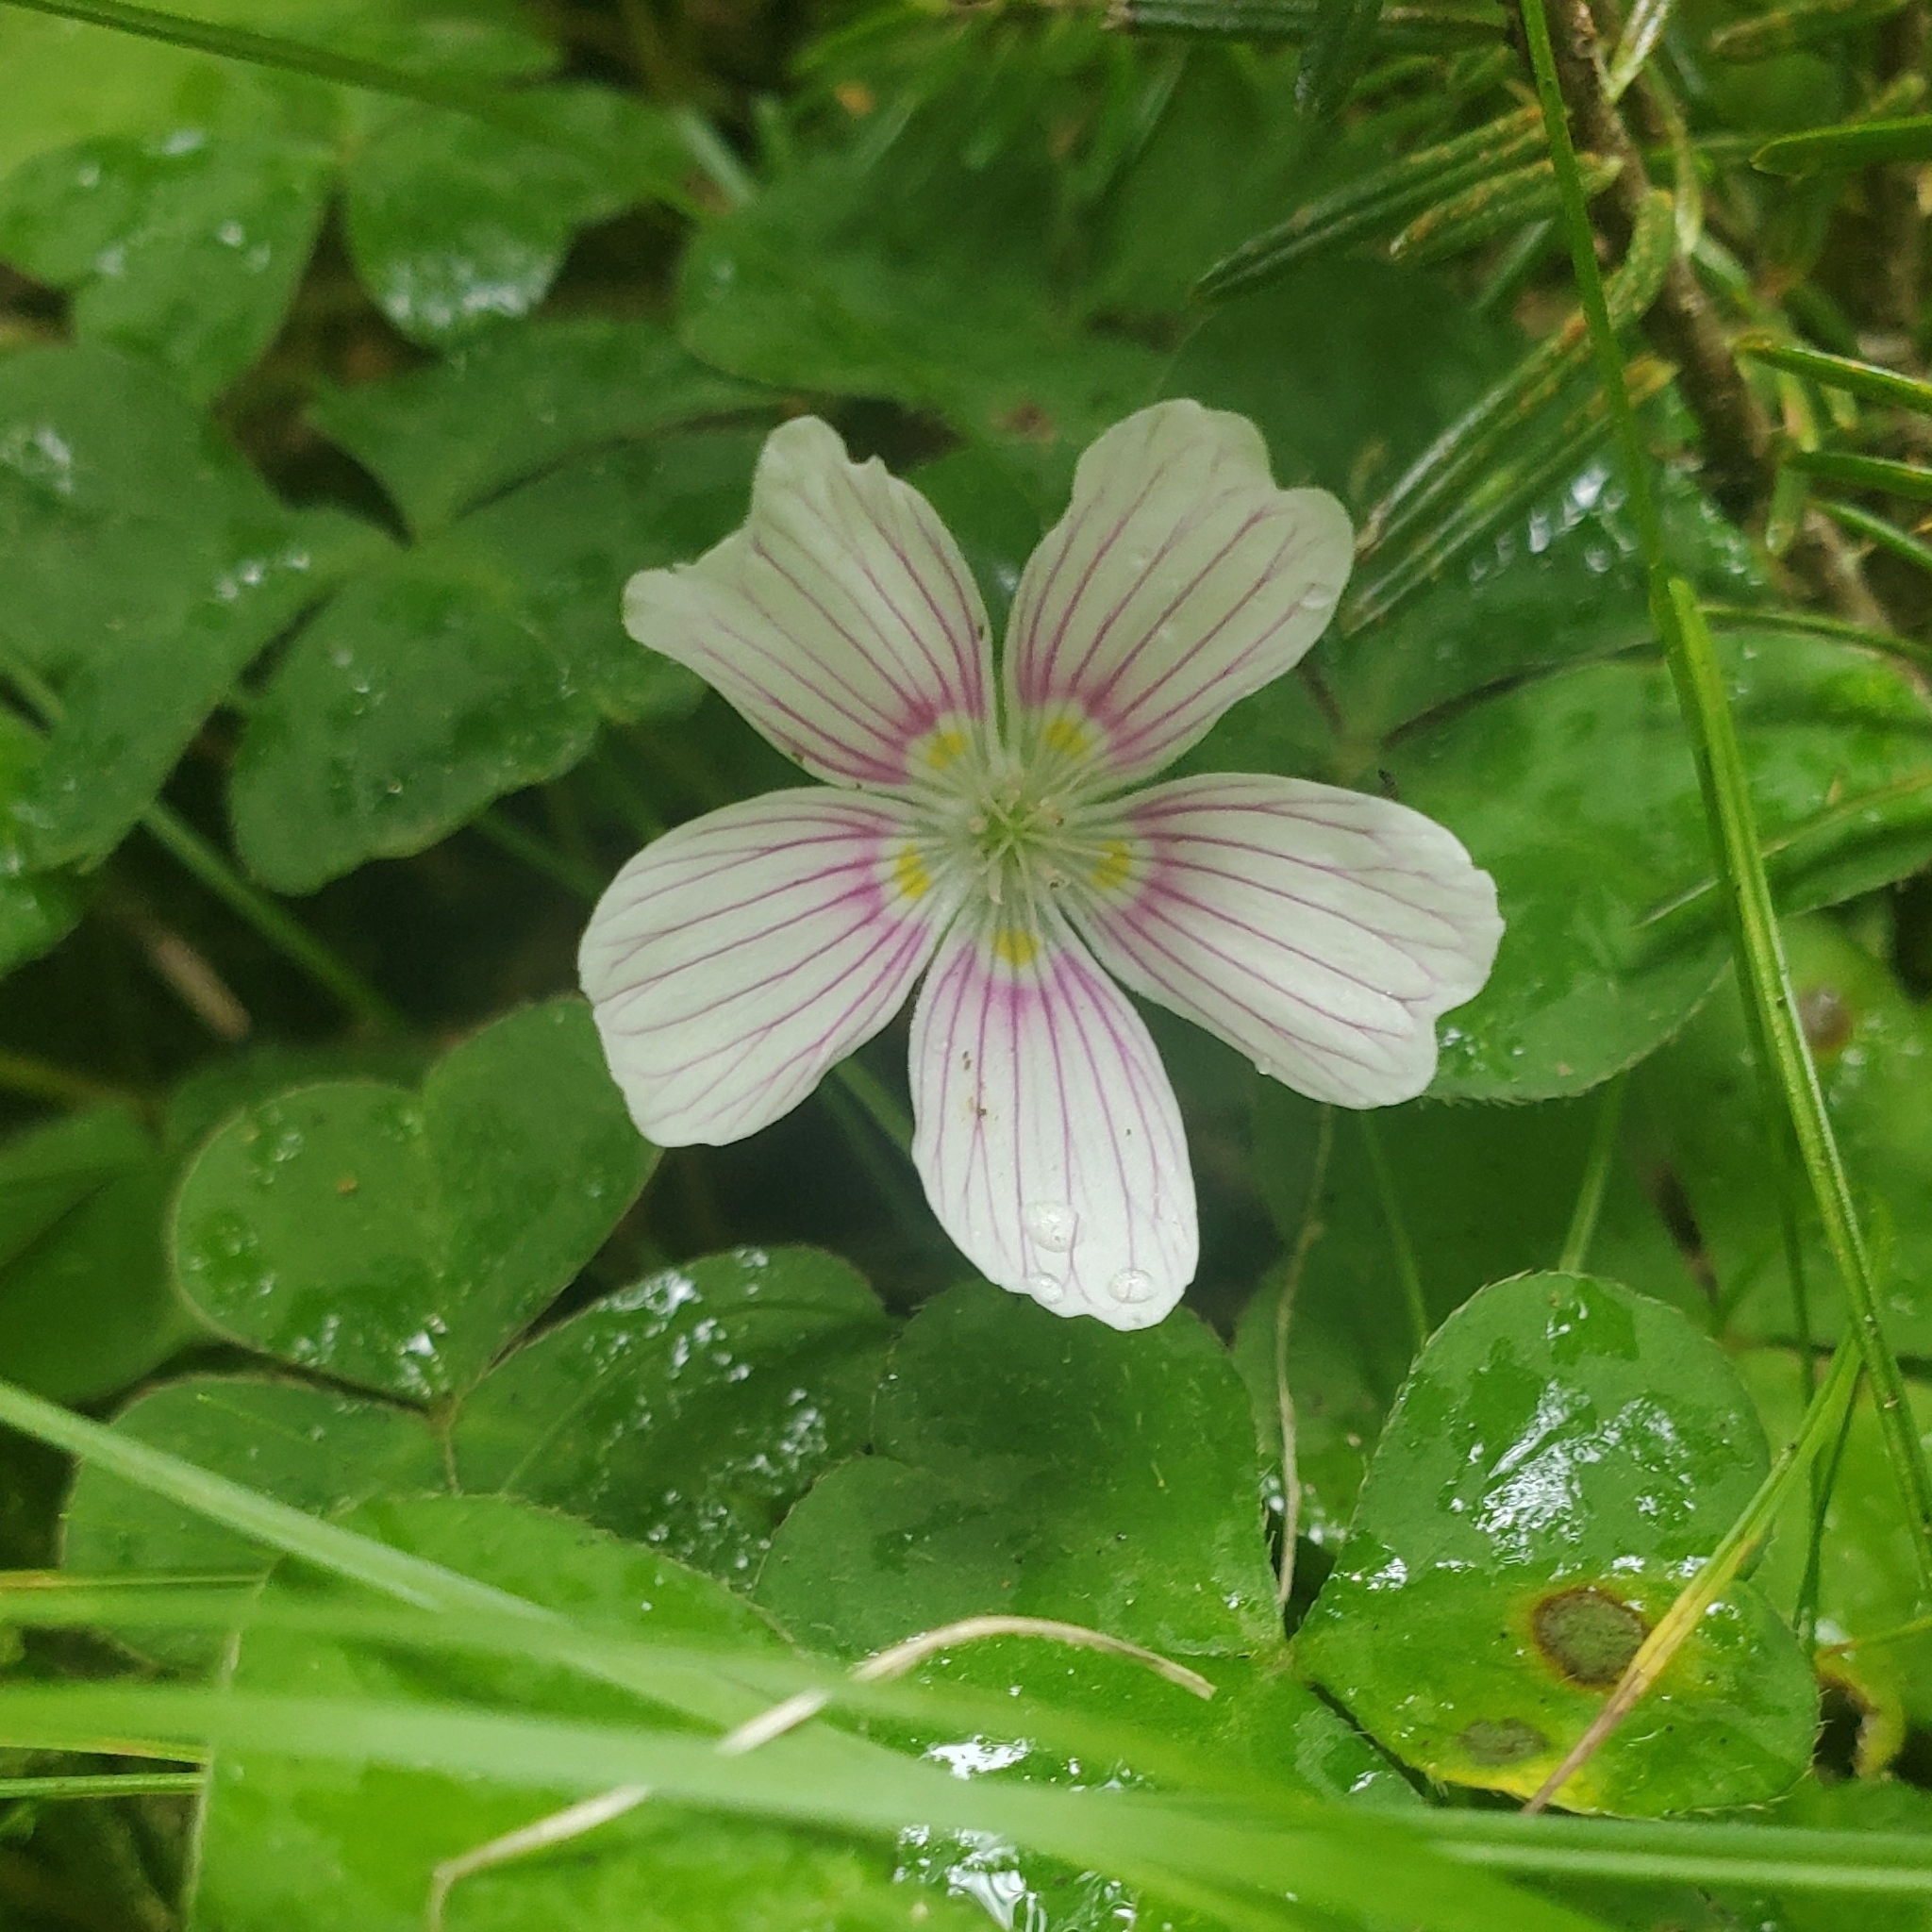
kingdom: Plantae
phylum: Tracheophyta
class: Magnoliopsida
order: Oxalidales
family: Oxalidaceae
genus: Oxalis
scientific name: Oxalis montana
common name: American wood-sorrel
